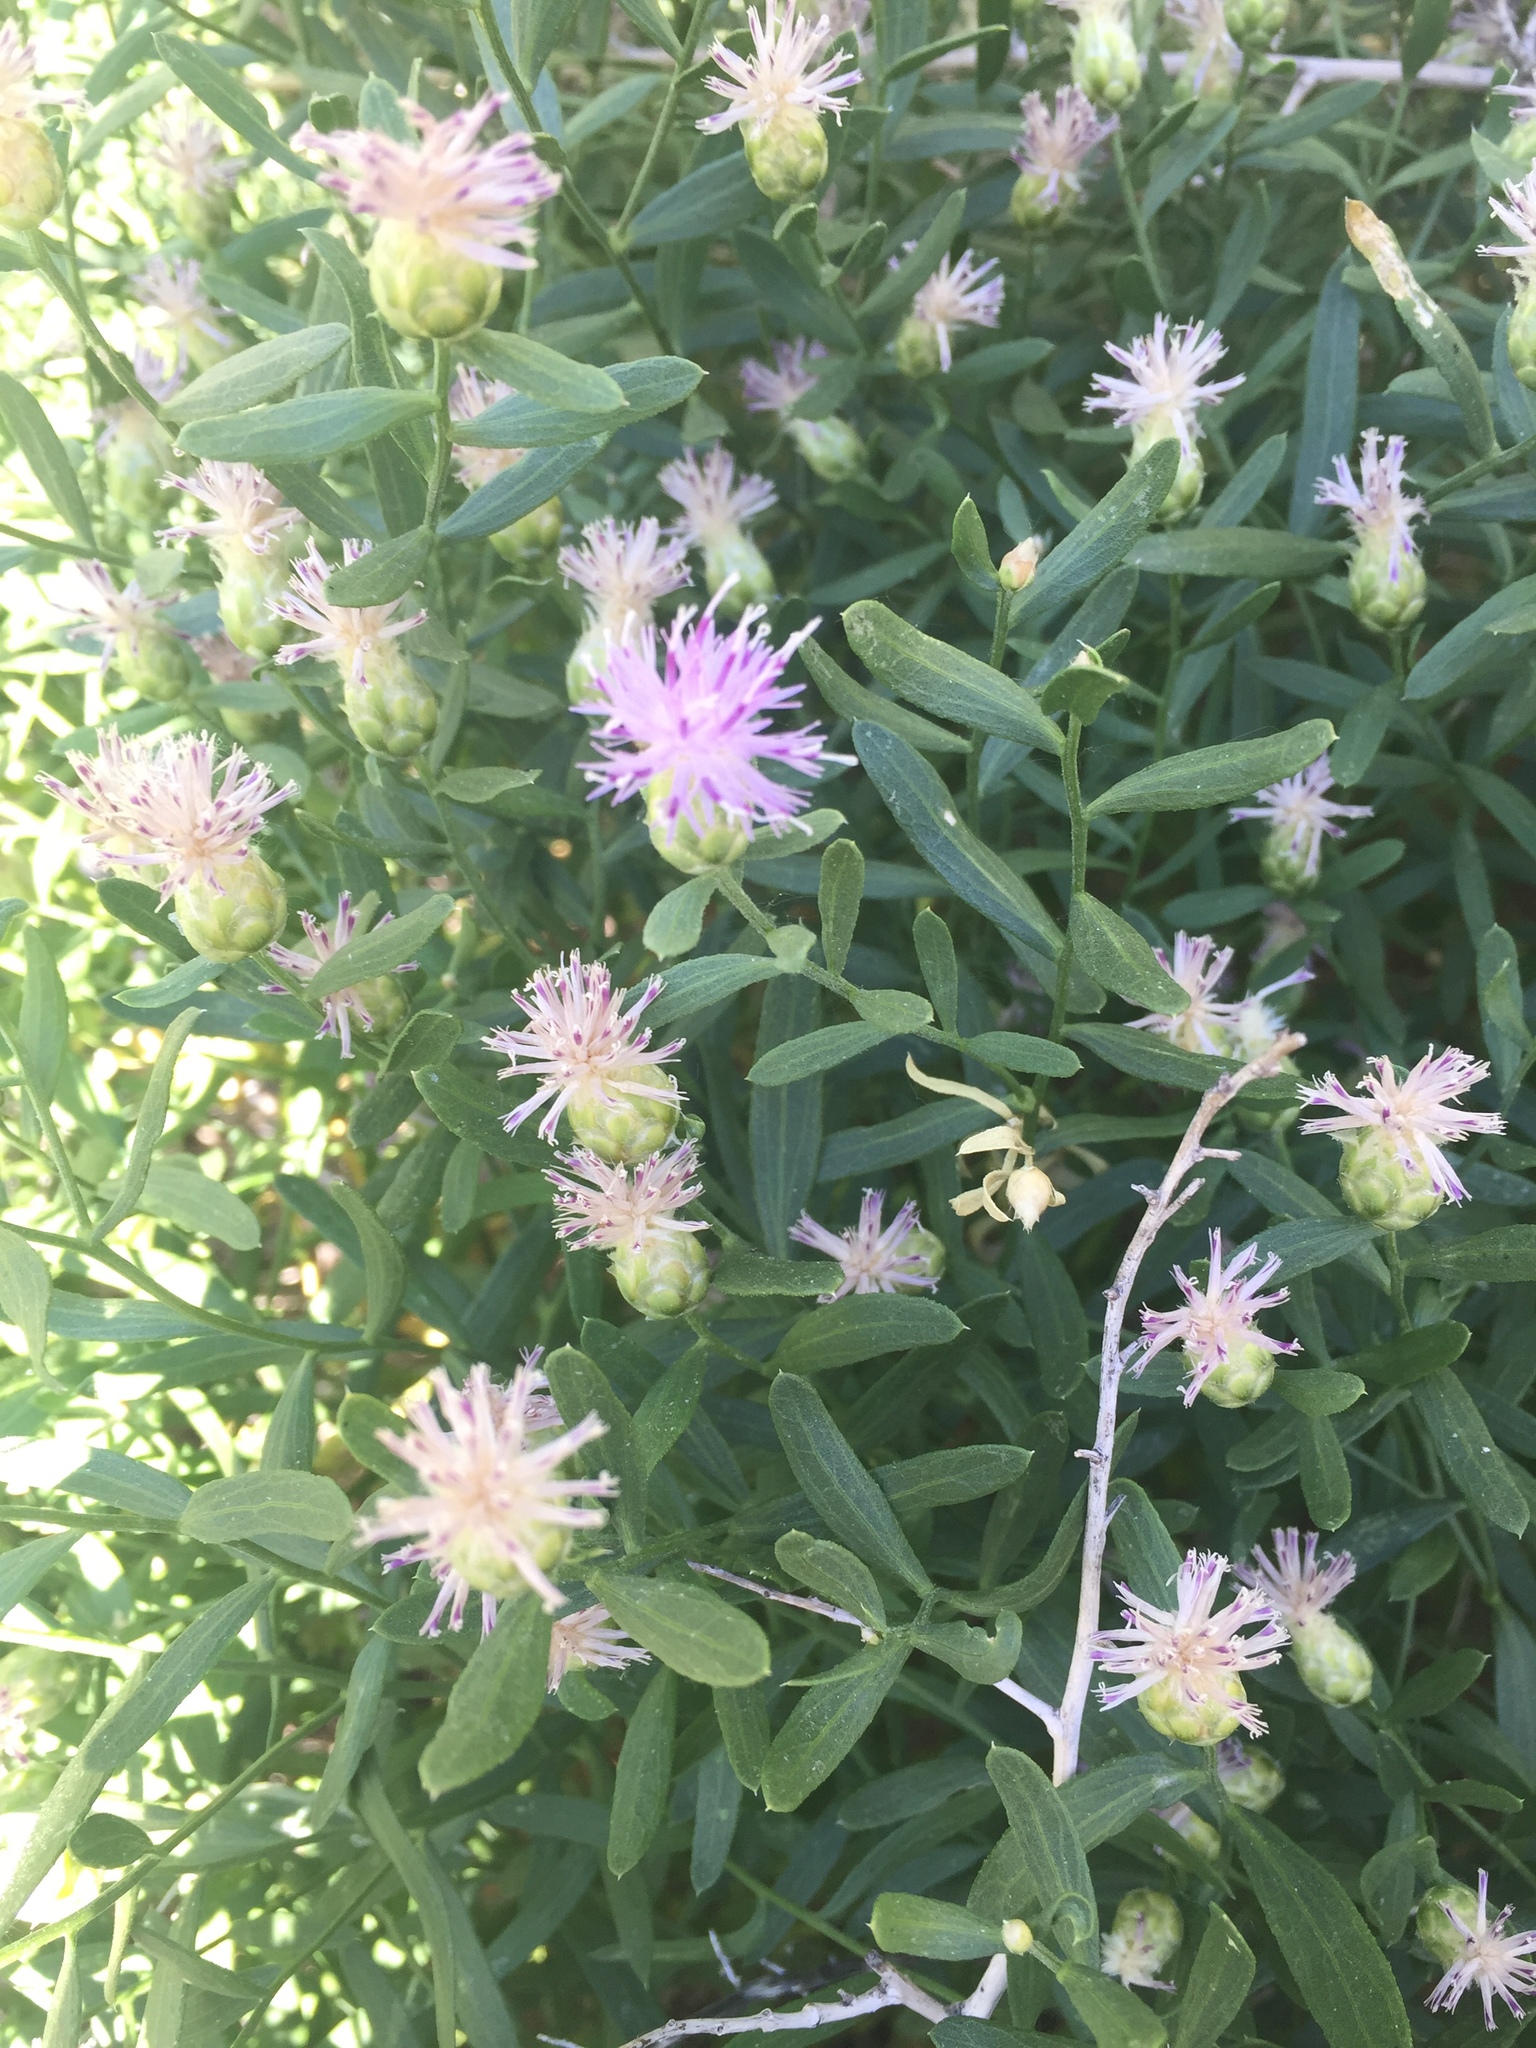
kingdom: Plantae
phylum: Tracheophyta
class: Magnoliopsida
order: Asterales
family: Asteraceae
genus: Leuzea
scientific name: Leuzea repens
